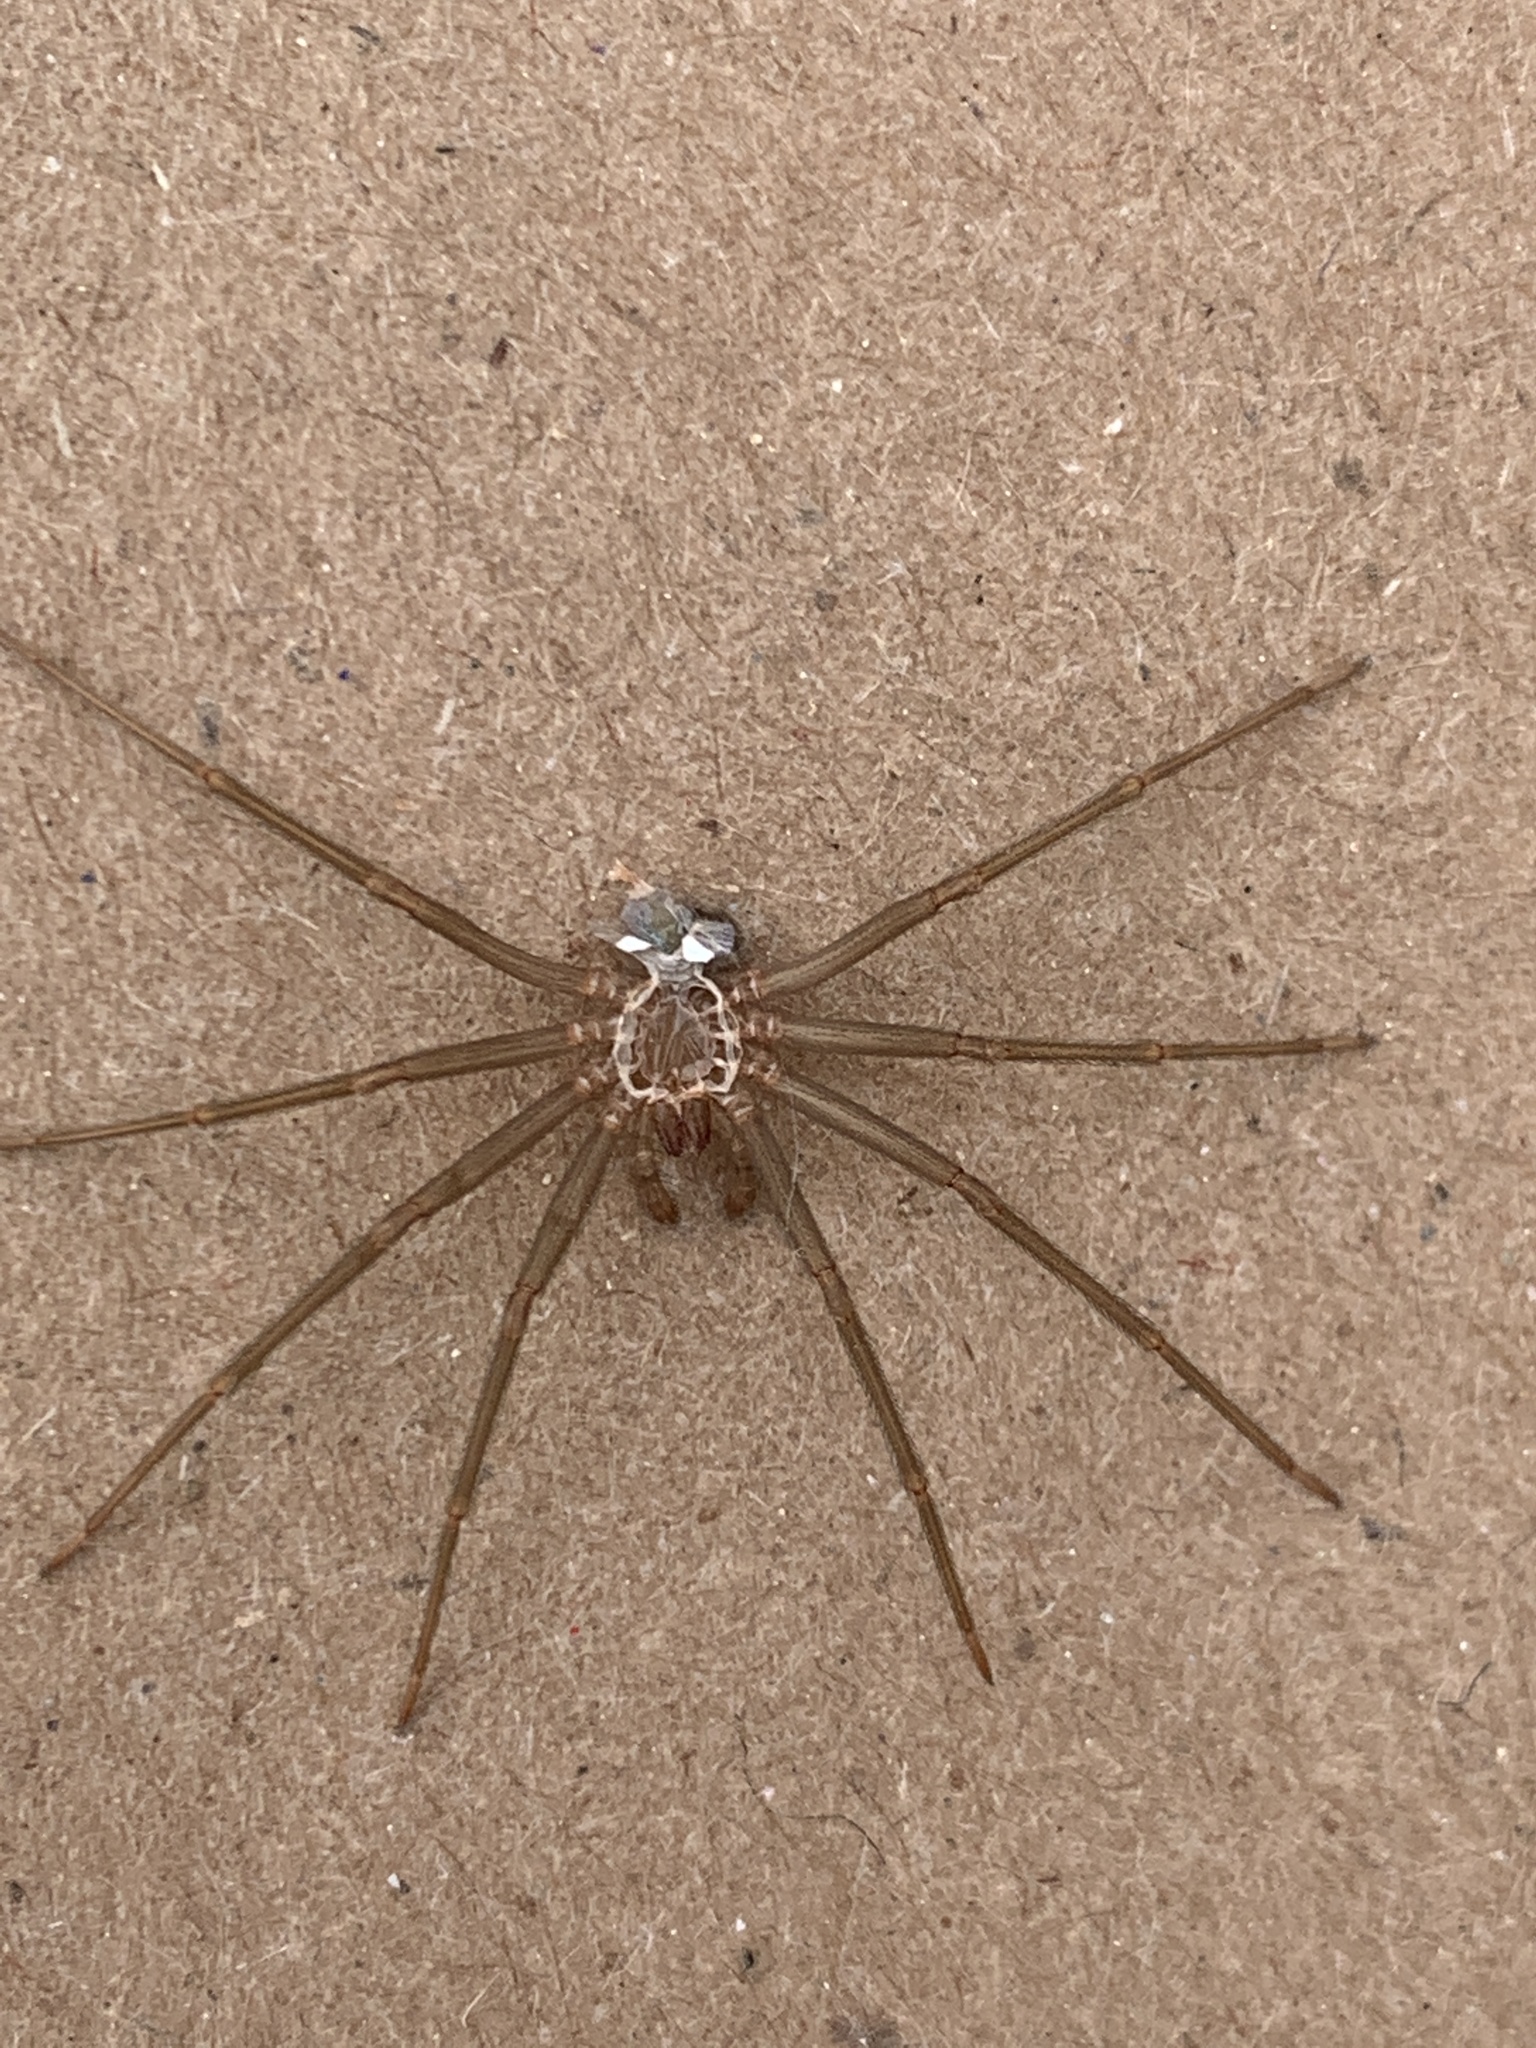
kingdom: Animalia
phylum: Arthropoda
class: Arachnida
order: Araneae
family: Sicariidae
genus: Loxosceles
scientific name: Loxosceles reclusa
